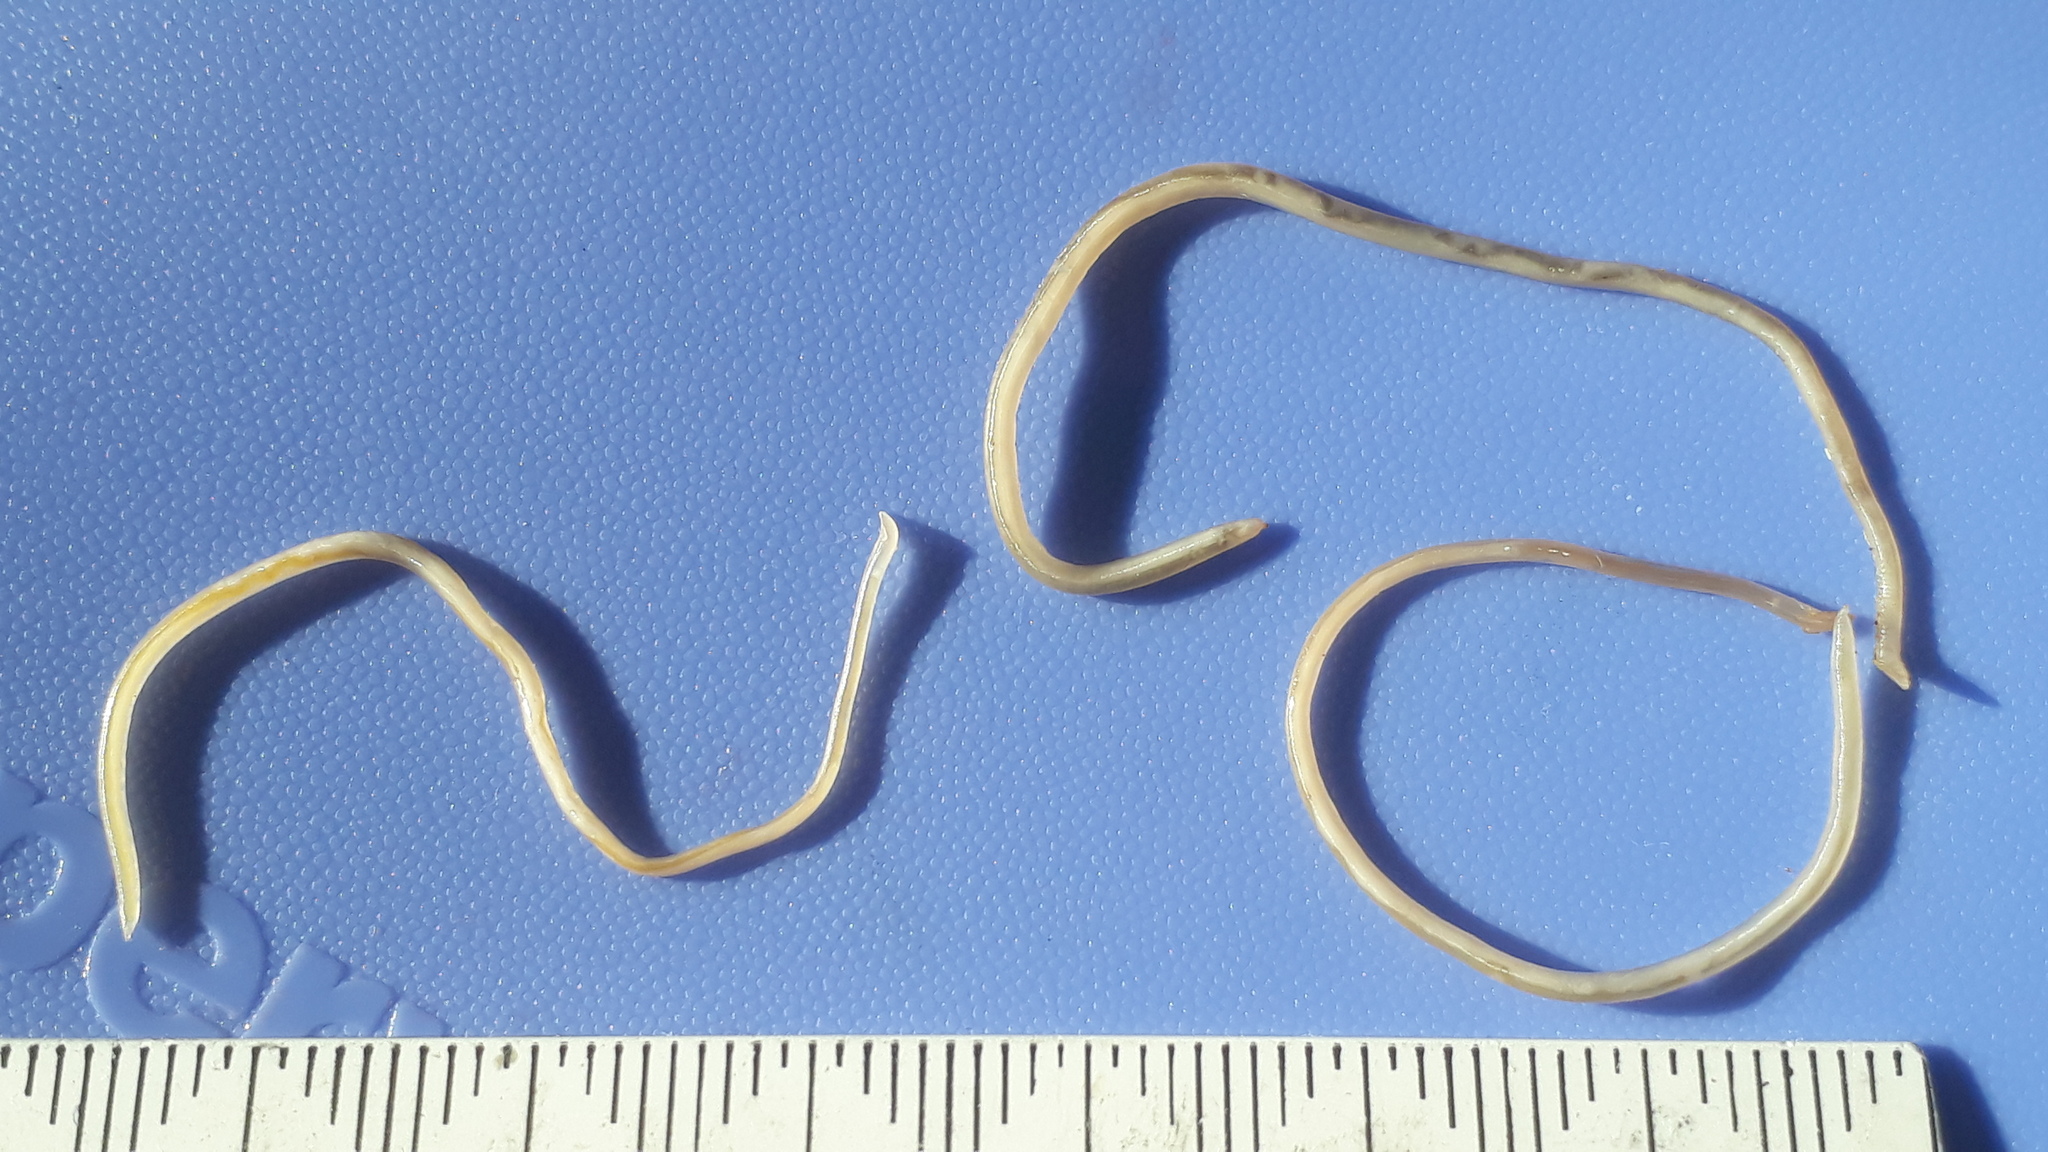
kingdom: Animalia
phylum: Nematoda
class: Chromadorea
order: Rhabditida
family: Ascarididae
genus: Toxocara
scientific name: Toxocara cati
